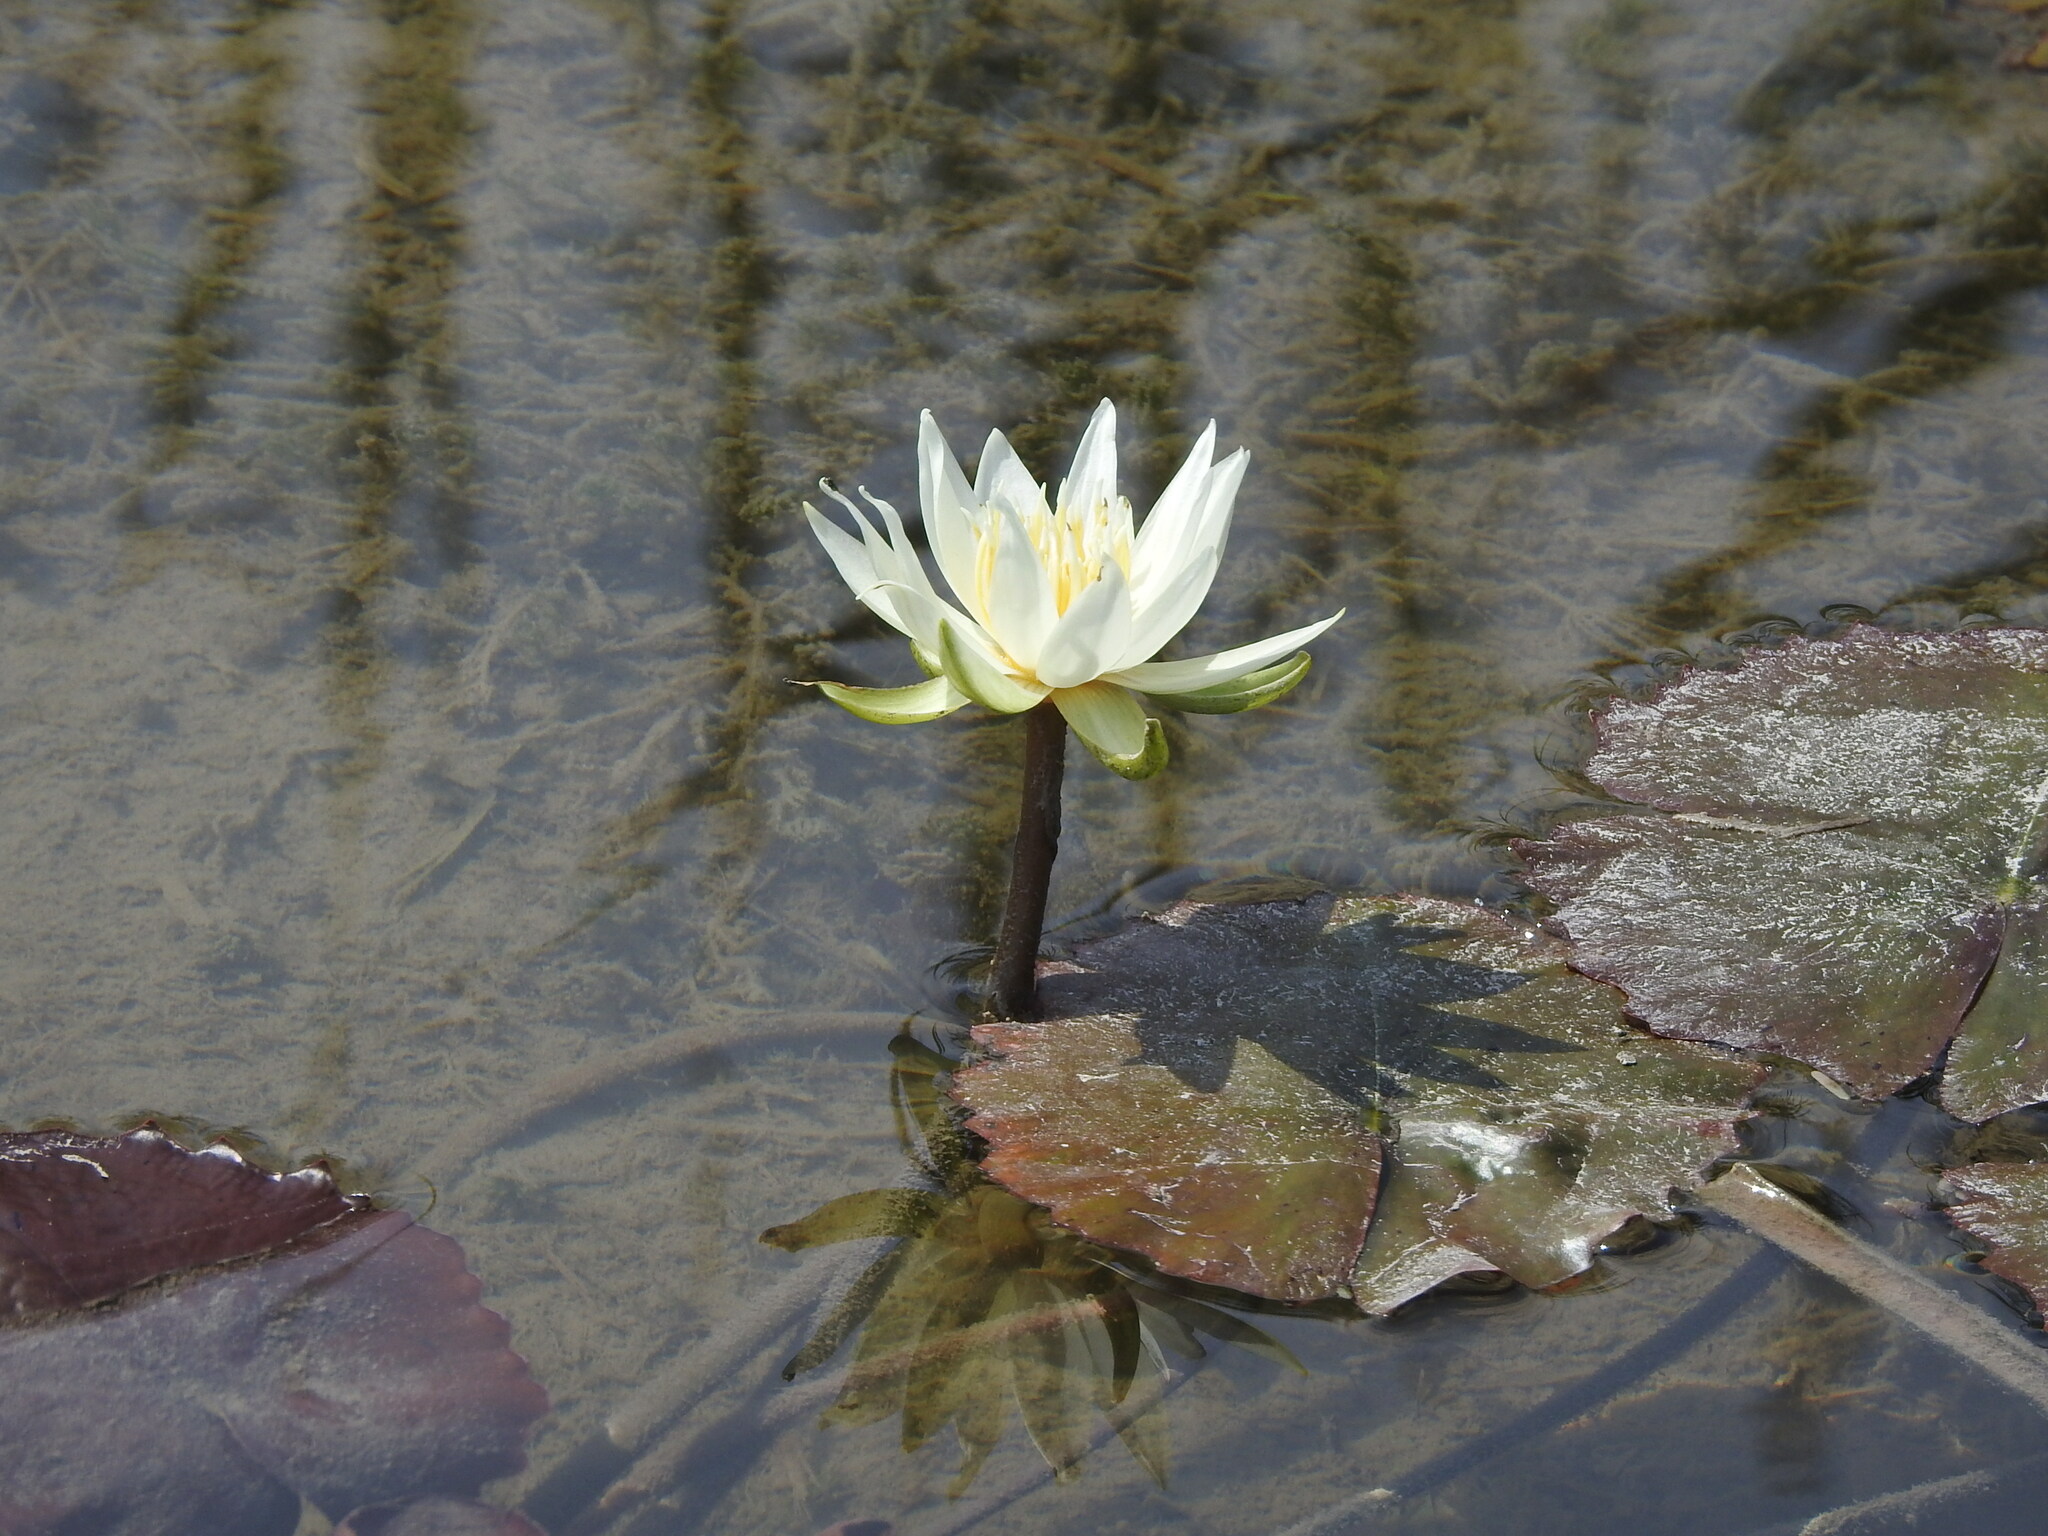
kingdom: Plantae
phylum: Tracheophyta
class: Magnoliopsida
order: Nymphaeales
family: Nymphaeaceae
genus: Nymphaea
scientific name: Nymphaea ampla
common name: Dotleaf waterlily
